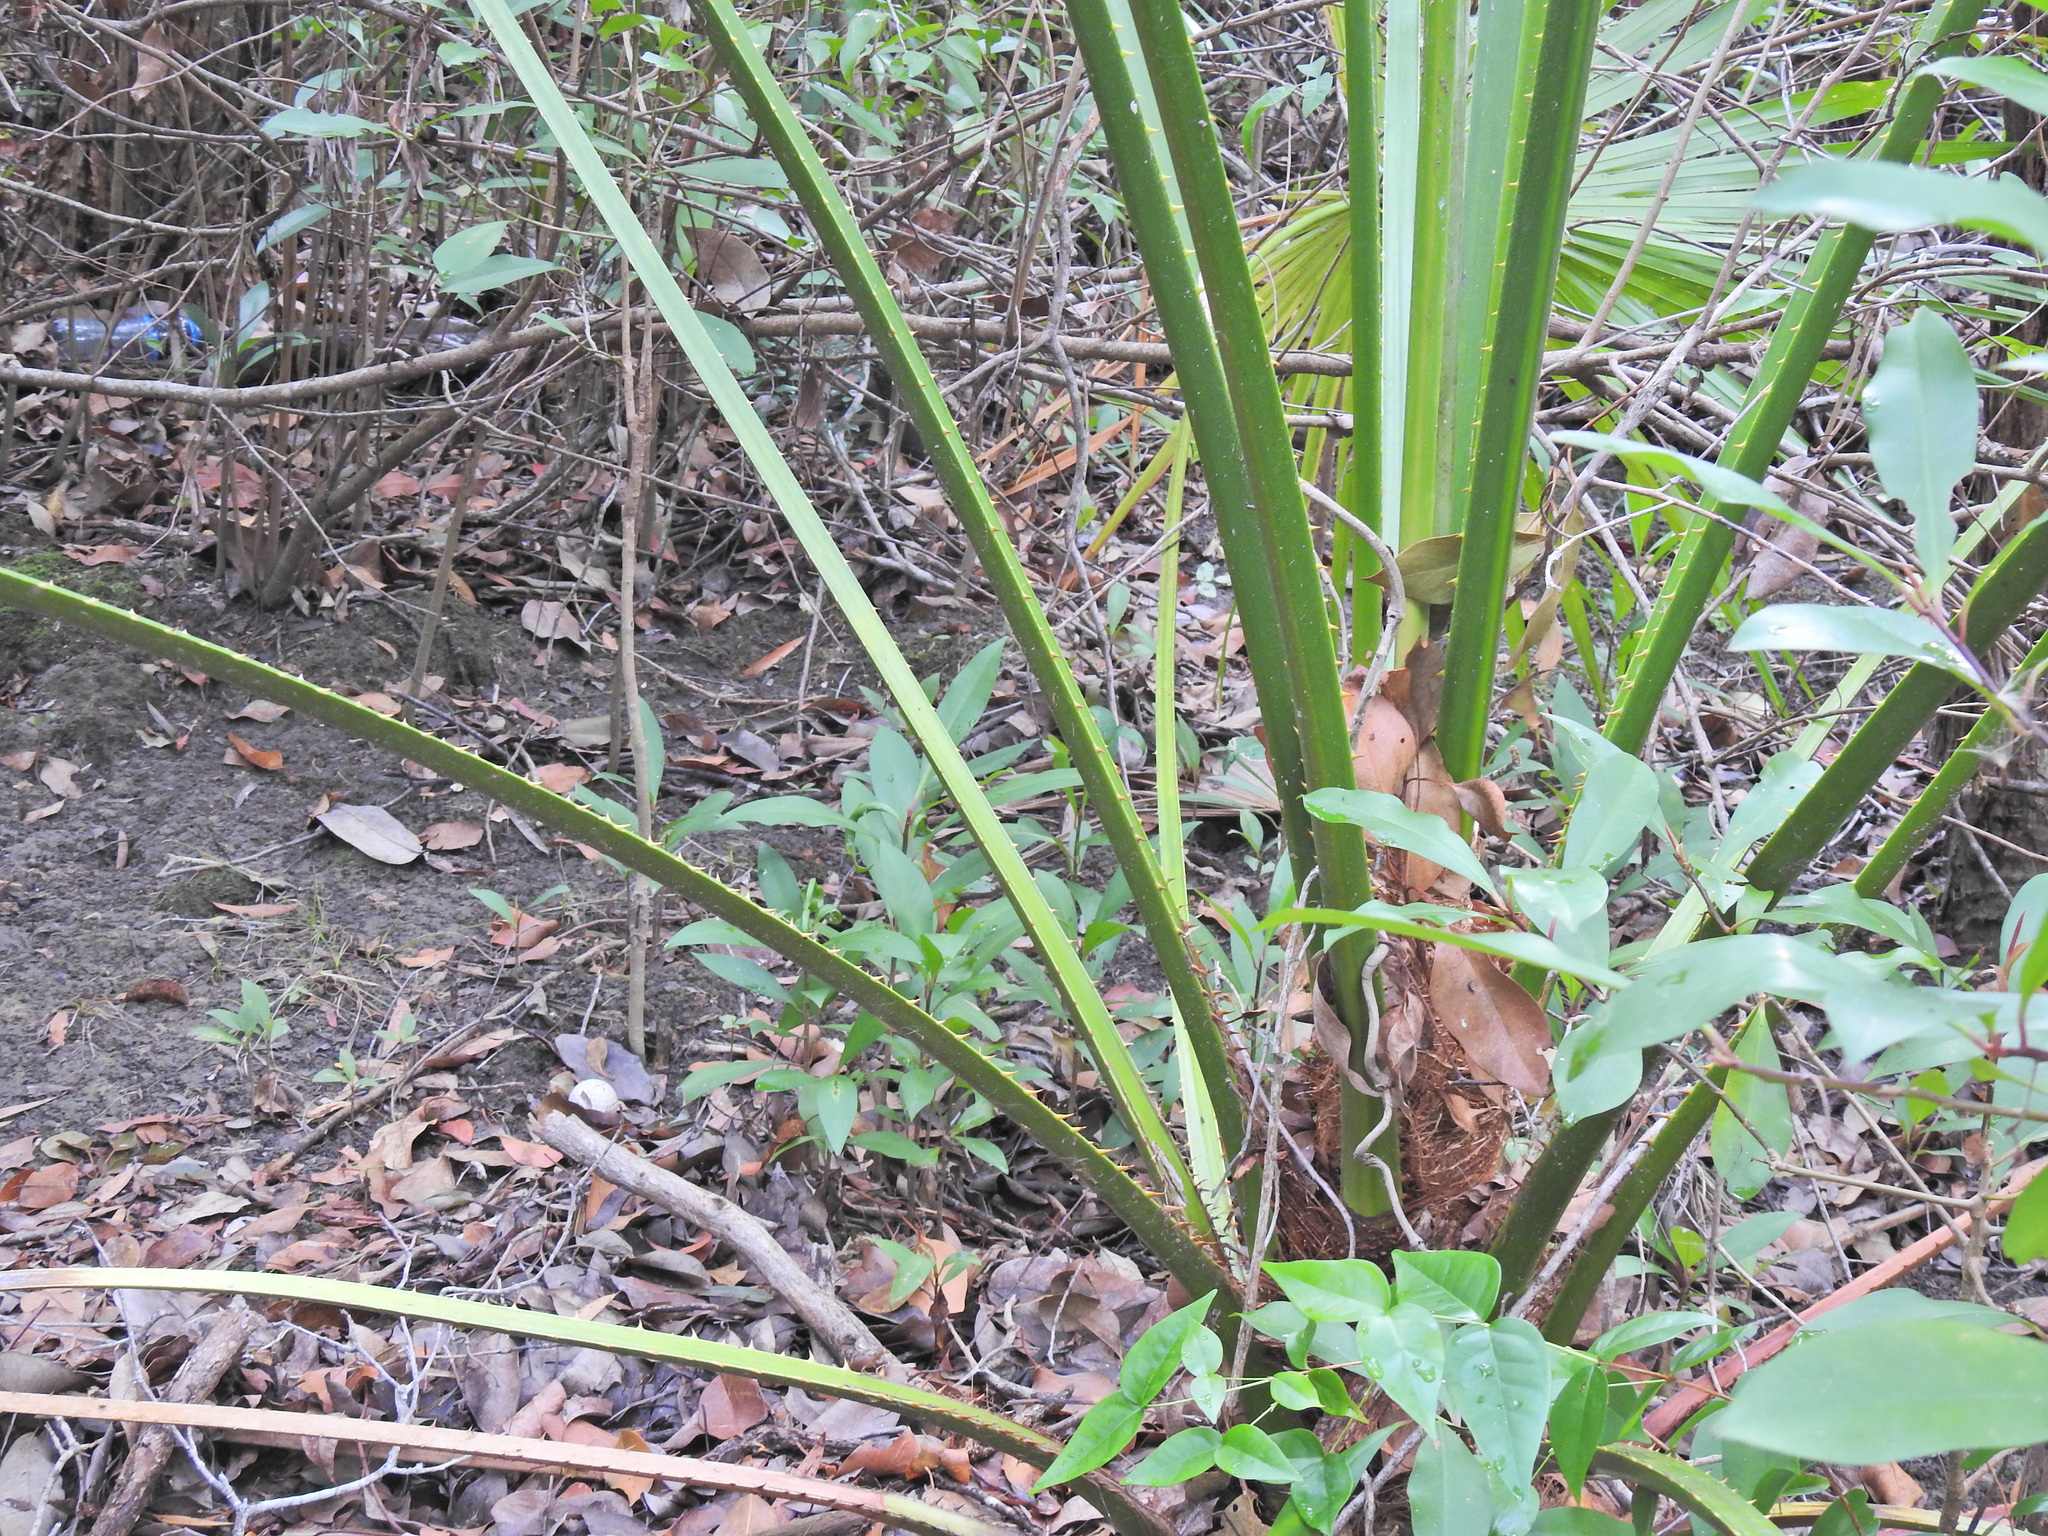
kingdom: Plantae
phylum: Tracheophyta
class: Liliopsida
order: Arecales
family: Arecaceae
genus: Livistona
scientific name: Livistona australis
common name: Cabbage fan palm
